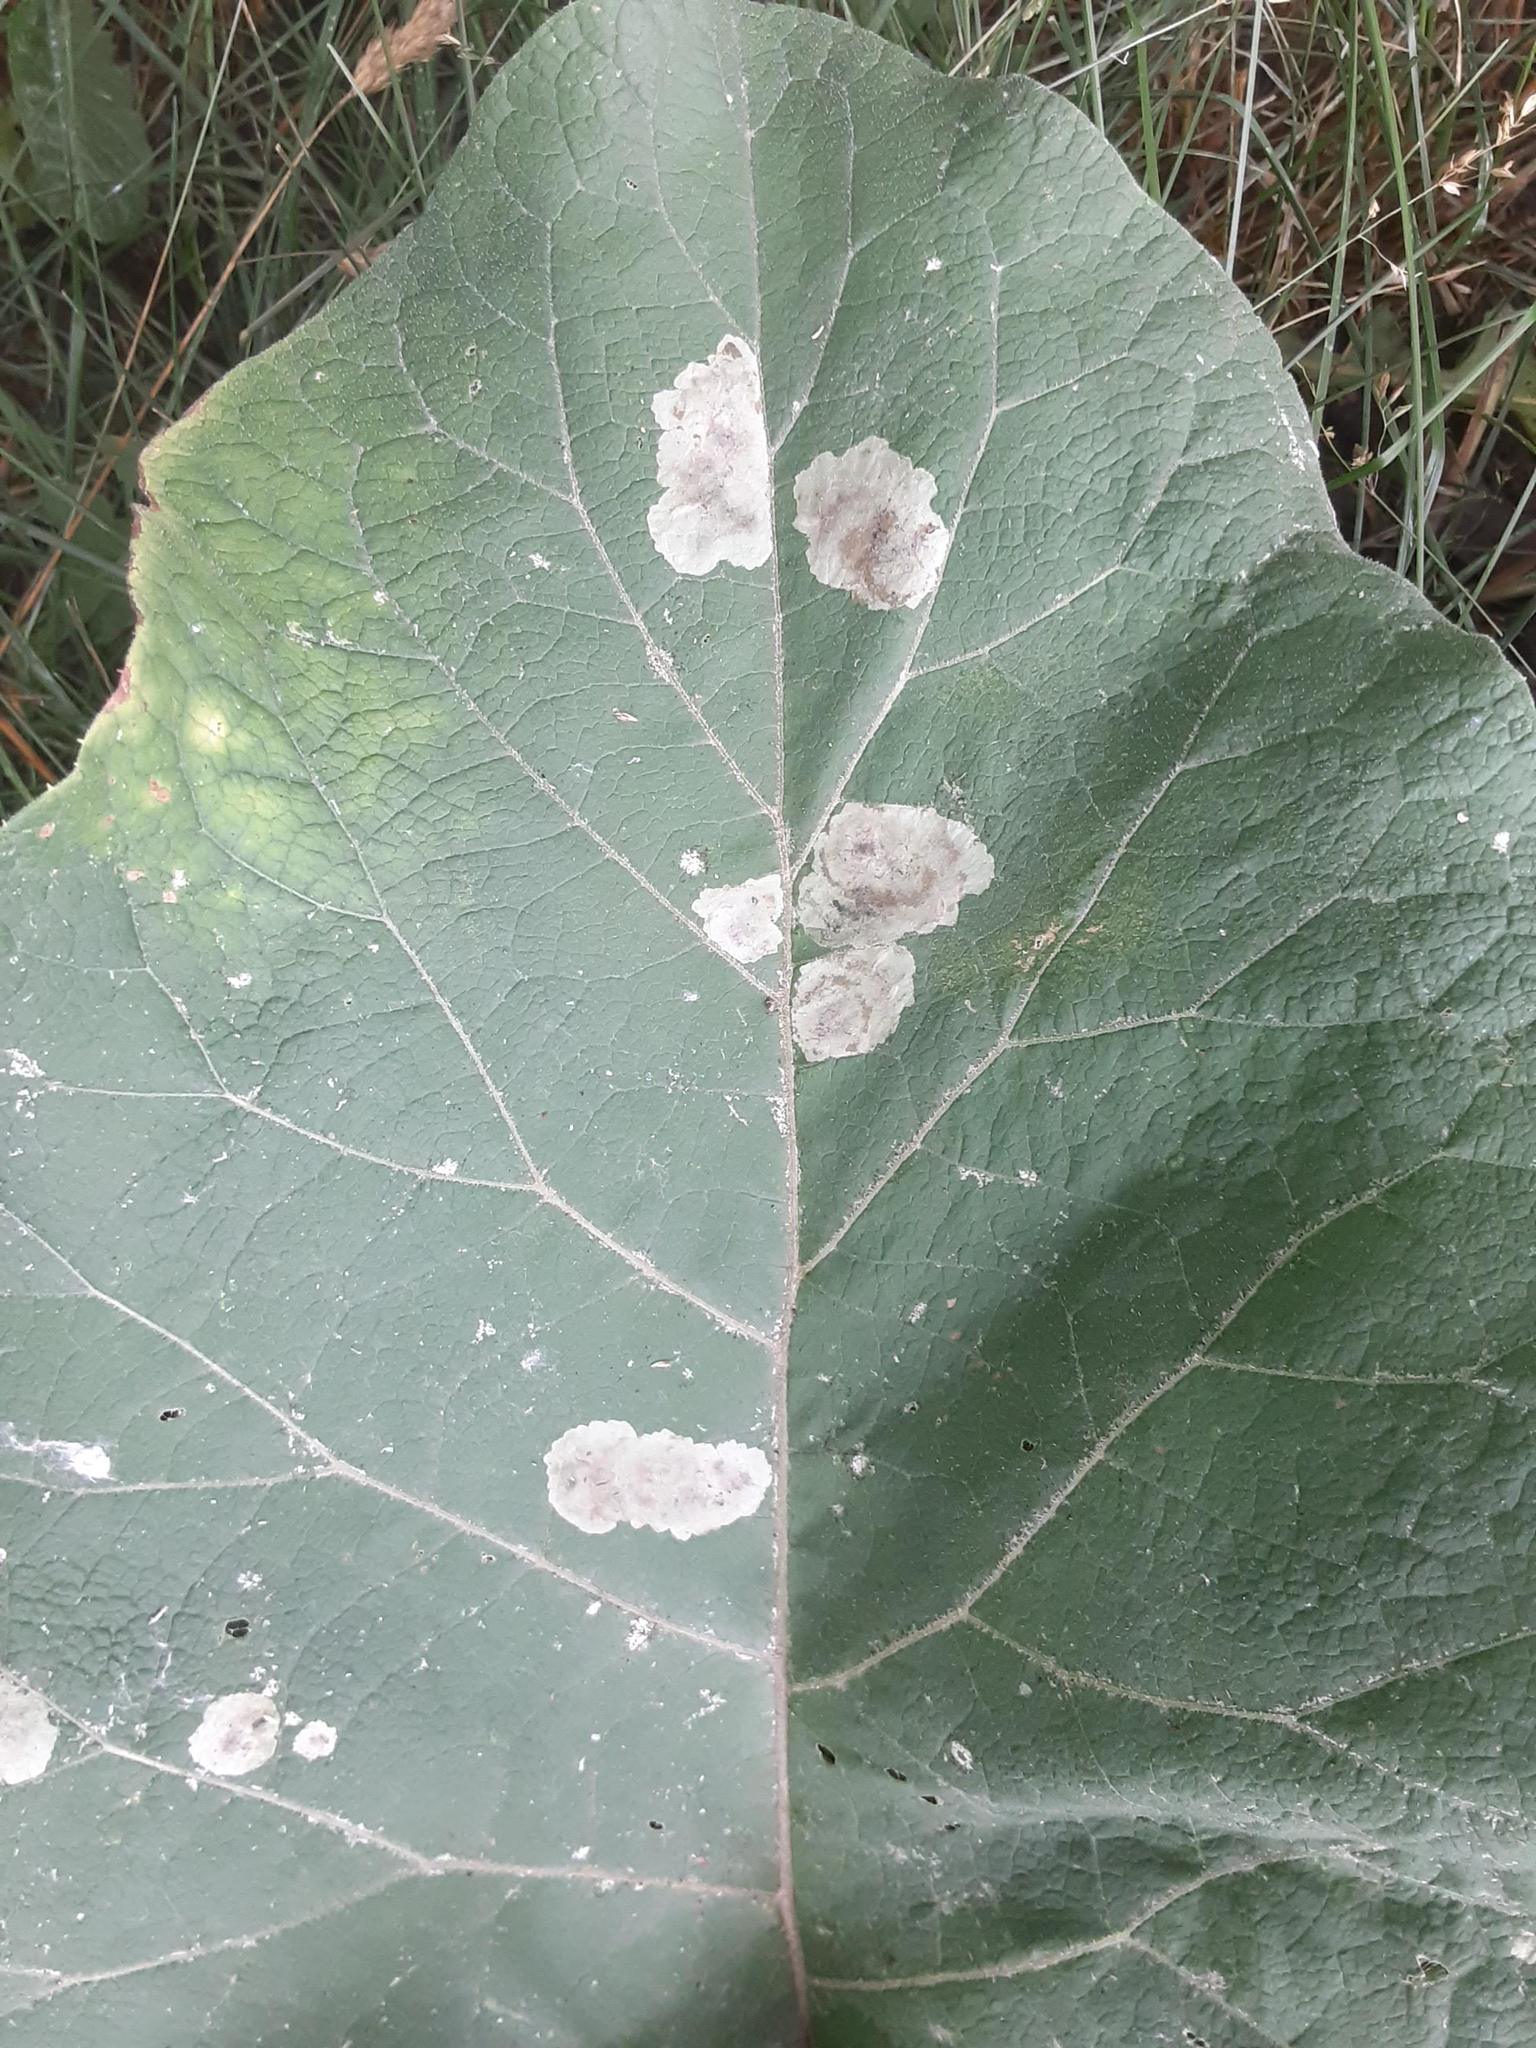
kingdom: Animalia
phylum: Arthropoda
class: Insecta
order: Diptera
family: Agromyzidae
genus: Calycomyza
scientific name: Calycomyza flavinotum
